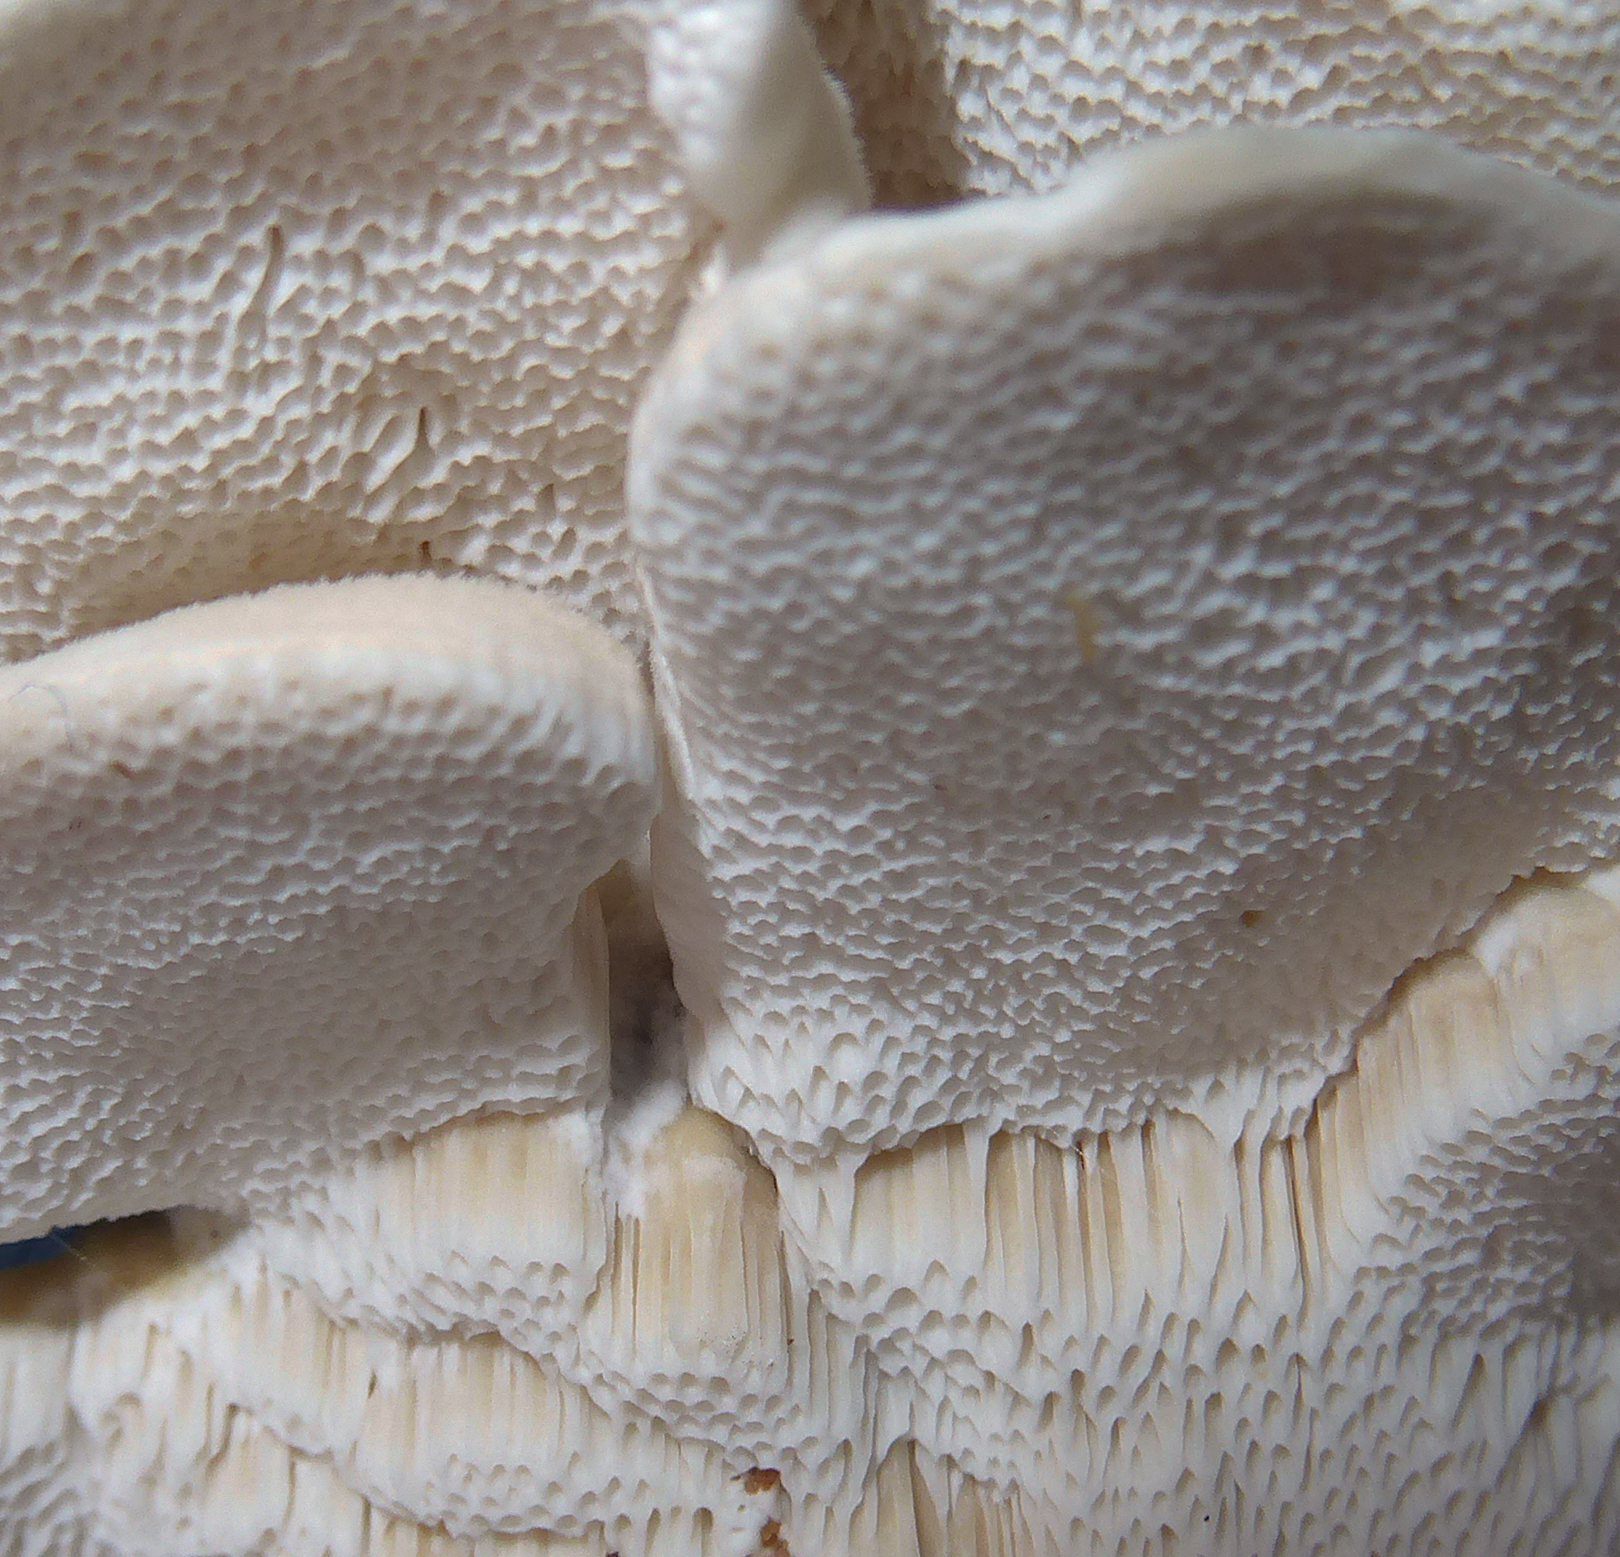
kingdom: Fungi
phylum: Basidiomycota
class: Agaricomycetes
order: Polyporales
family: Irpicaceae
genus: Trametopsis
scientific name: Trametopsis
